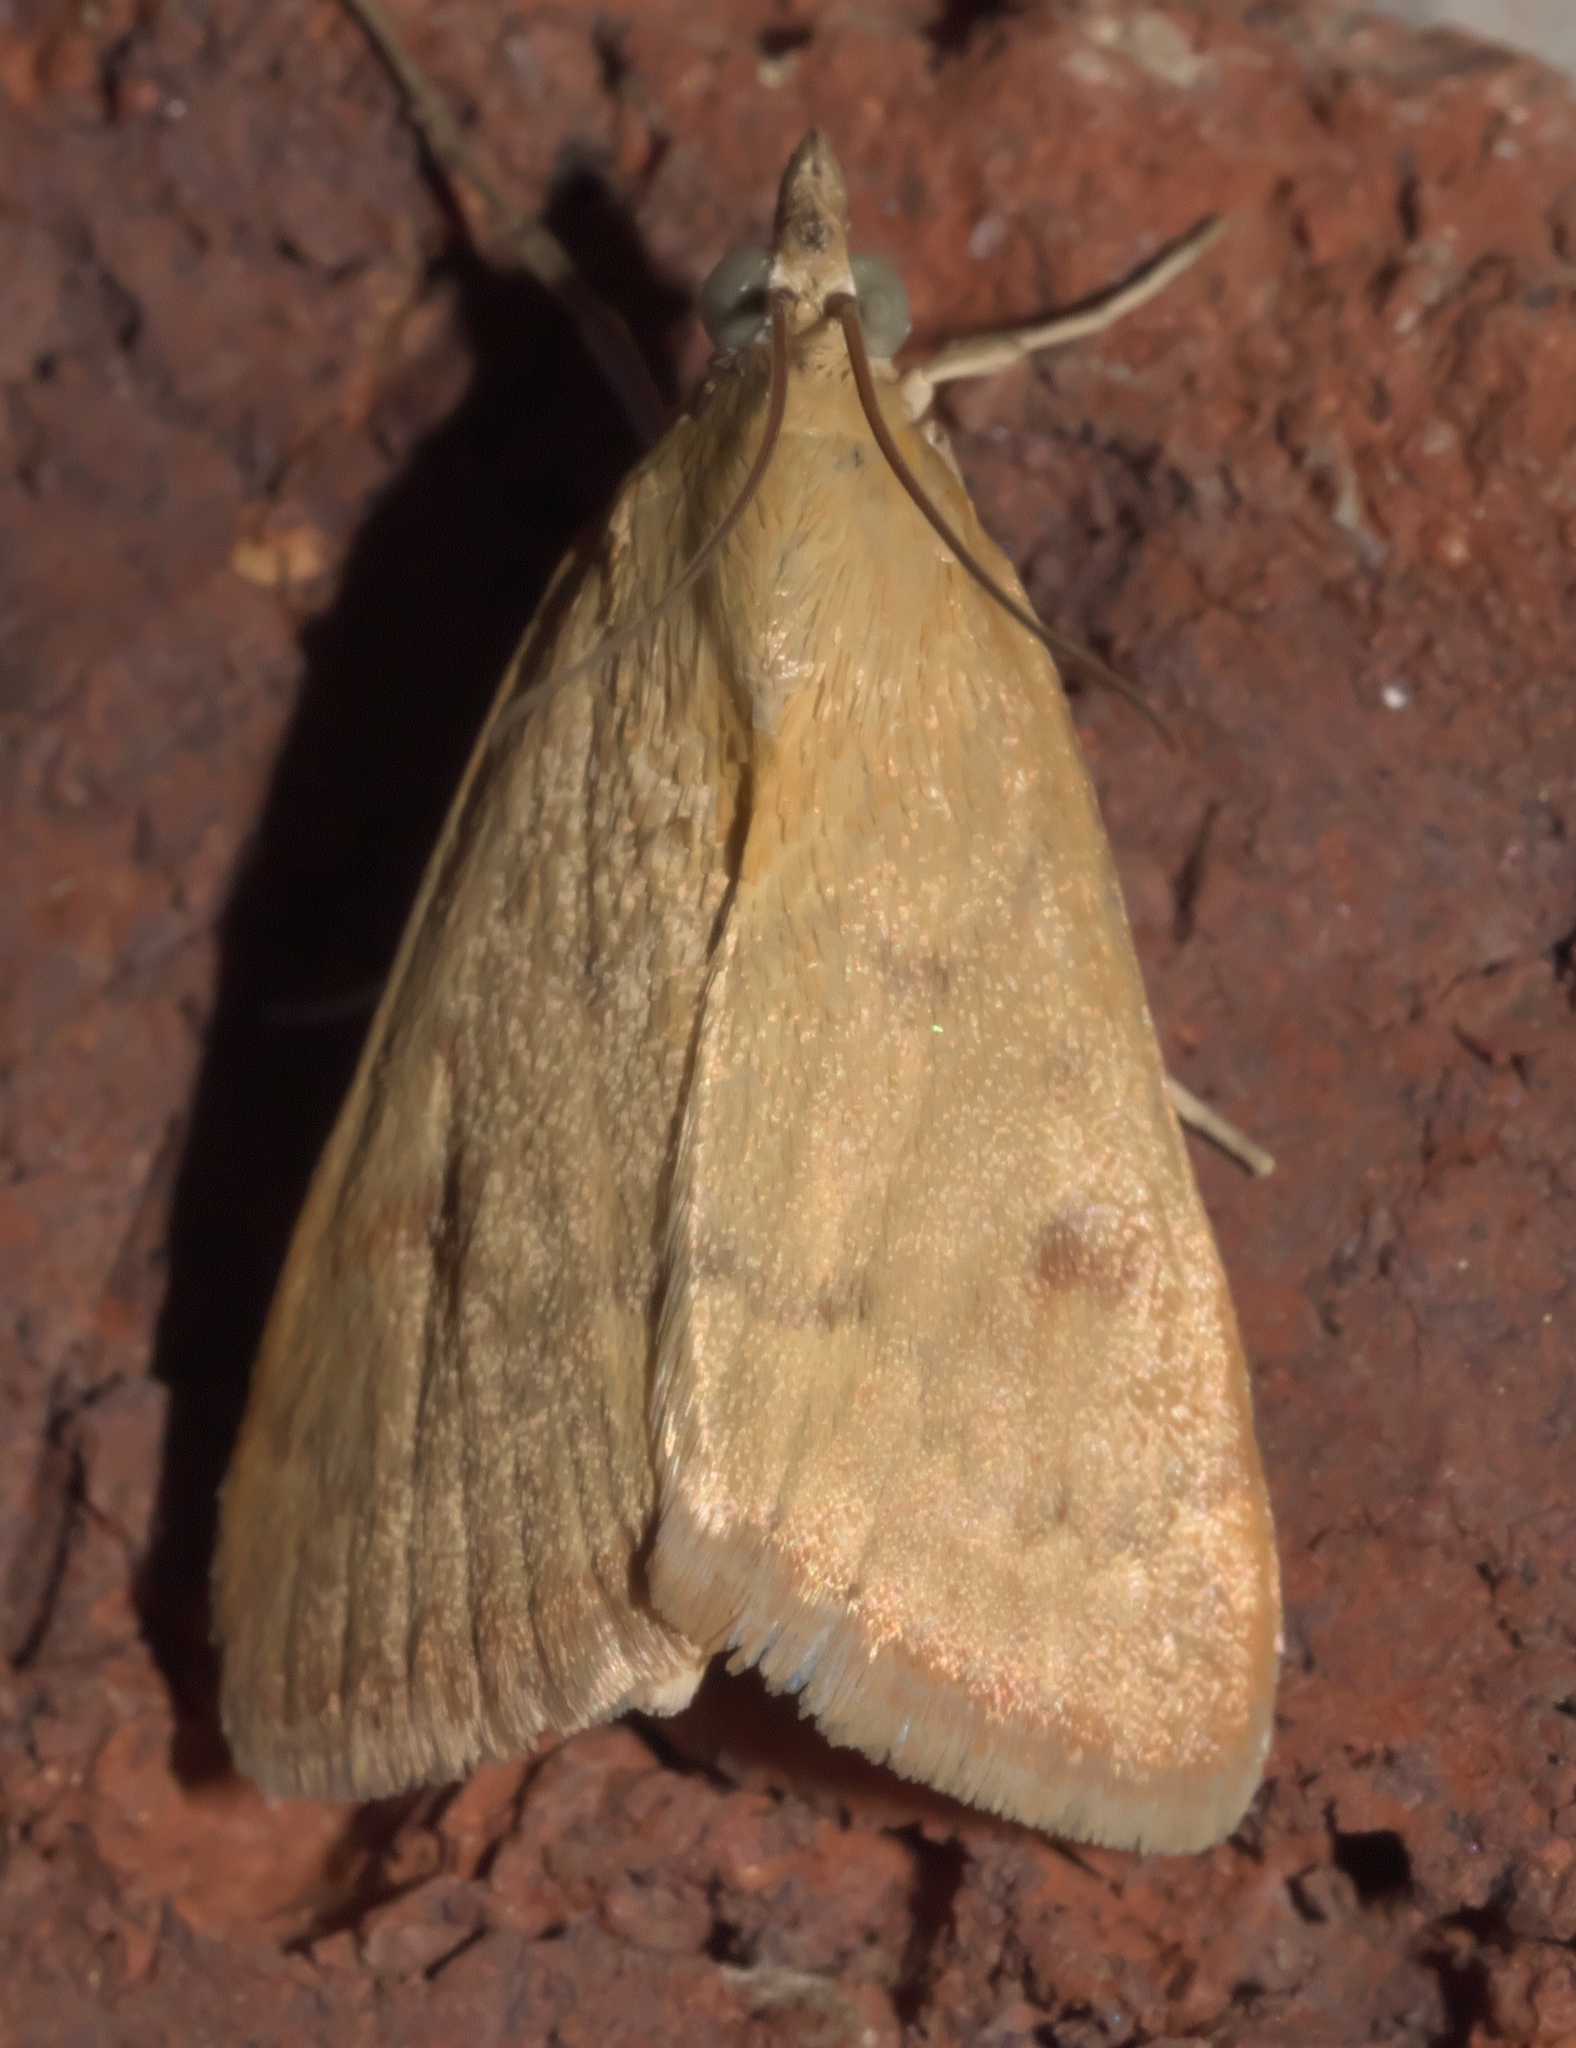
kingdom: Animalia
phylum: Arthropoda
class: Insecta
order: Lepidoptera
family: Crambidae
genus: Achyra
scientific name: Achyra rantalis
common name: Garden webworm
